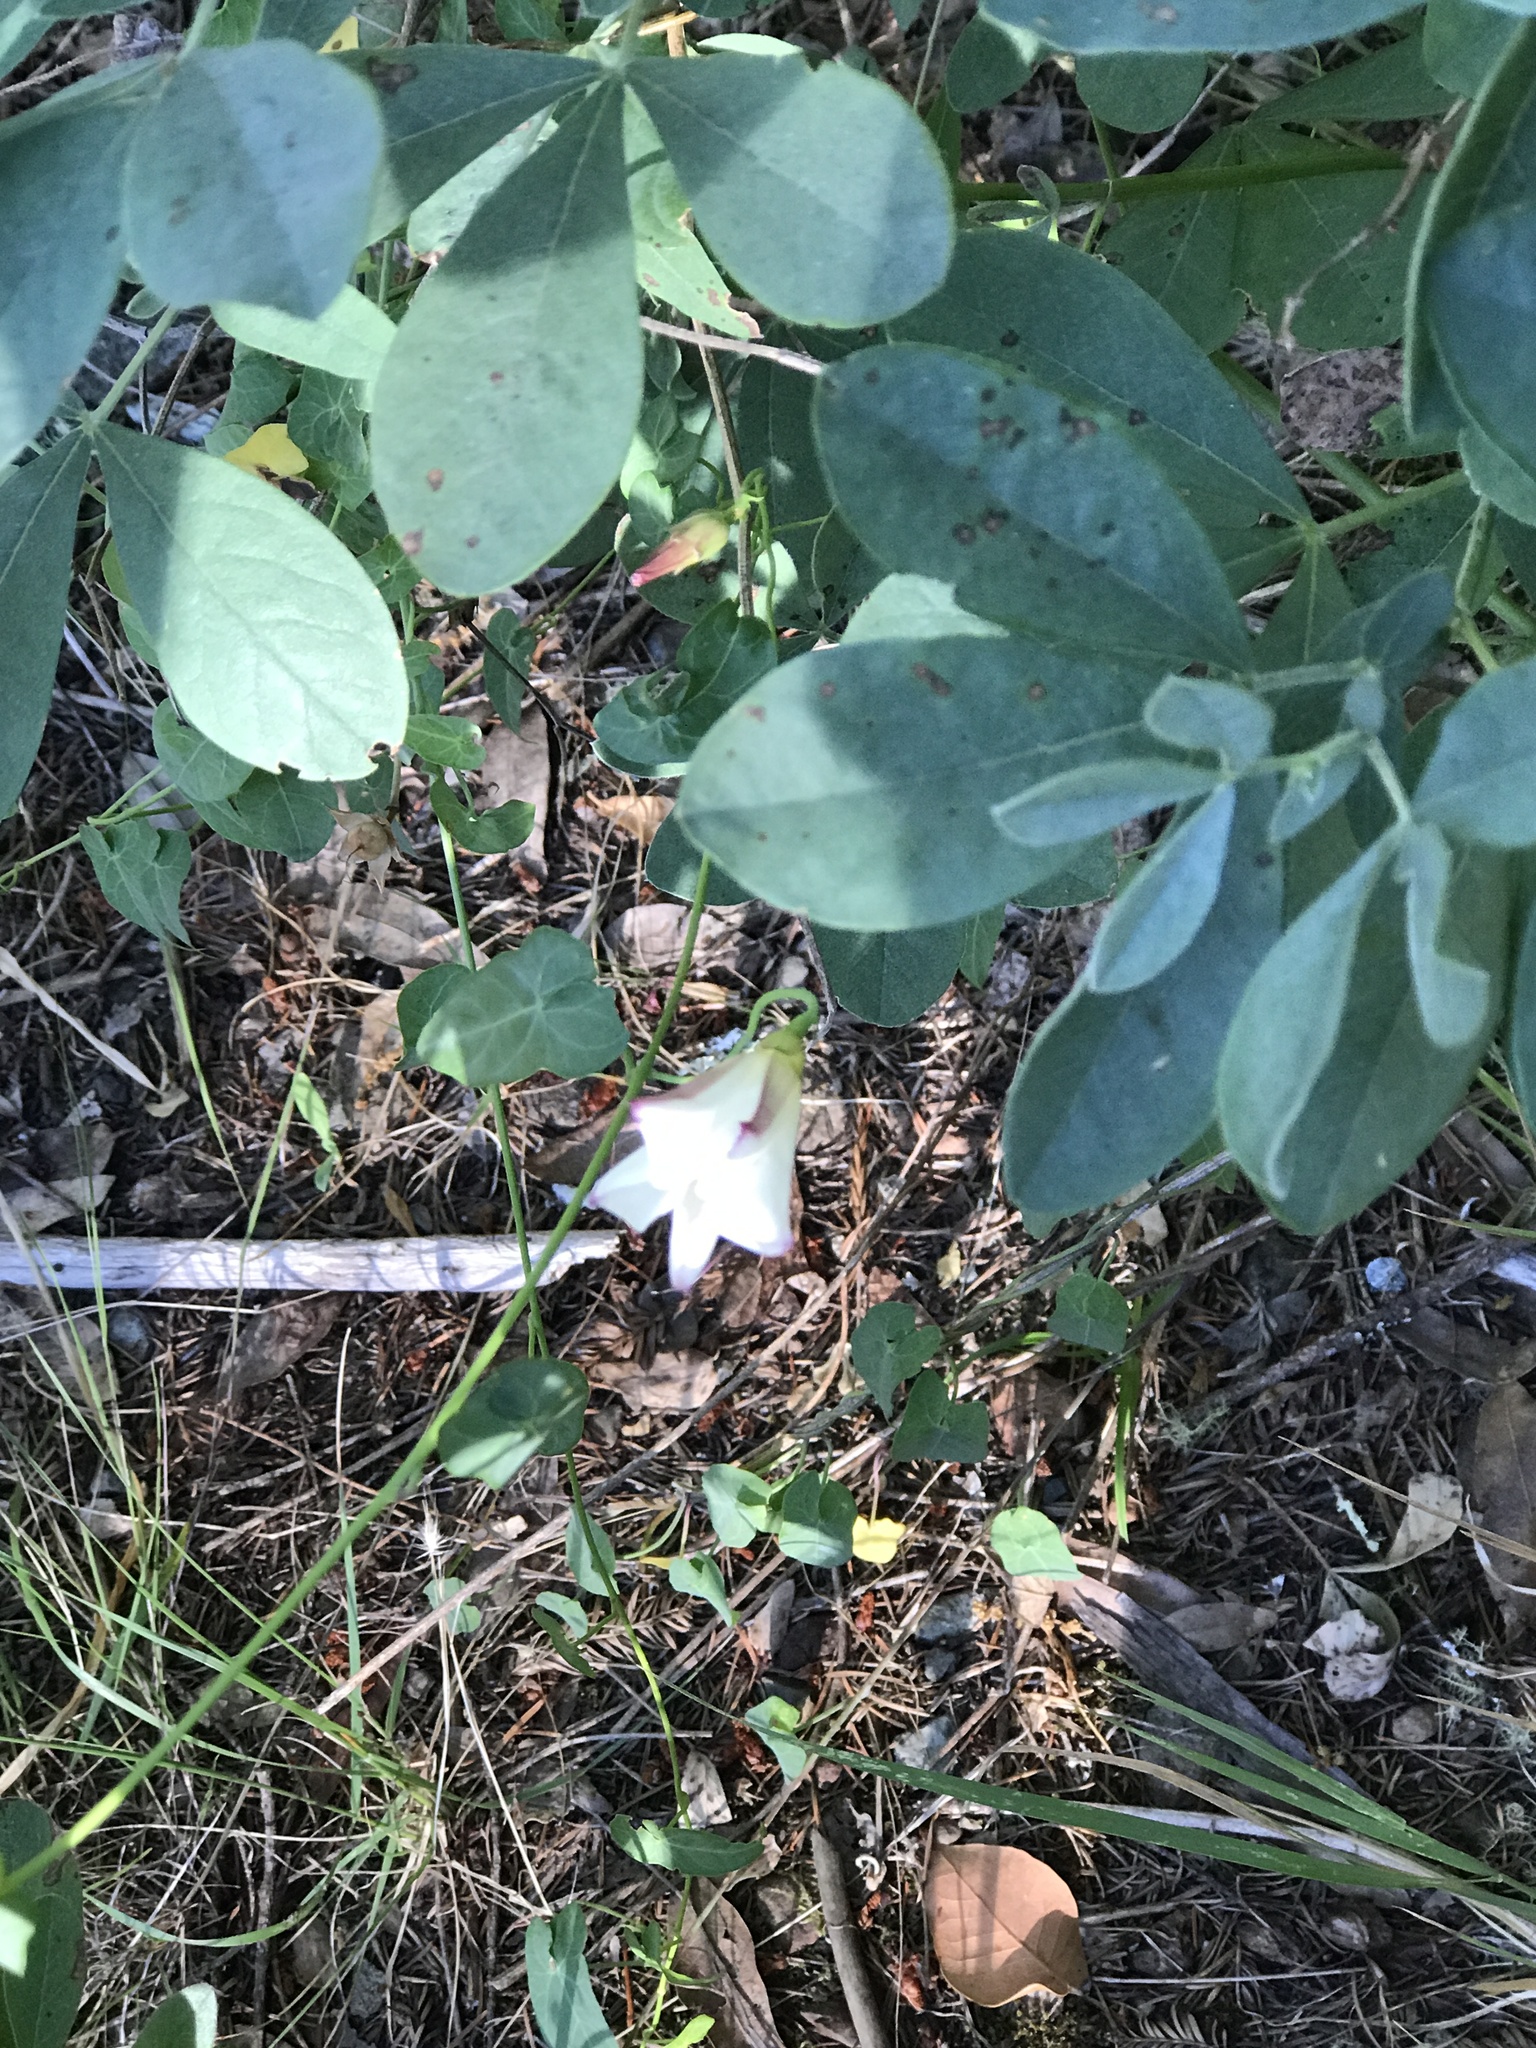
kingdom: Plantae
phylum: Tracheophyta
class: Magnoliopsida
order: Fabales
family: Fabaceae
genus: Thermopsis
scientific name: Thermopsis californica
